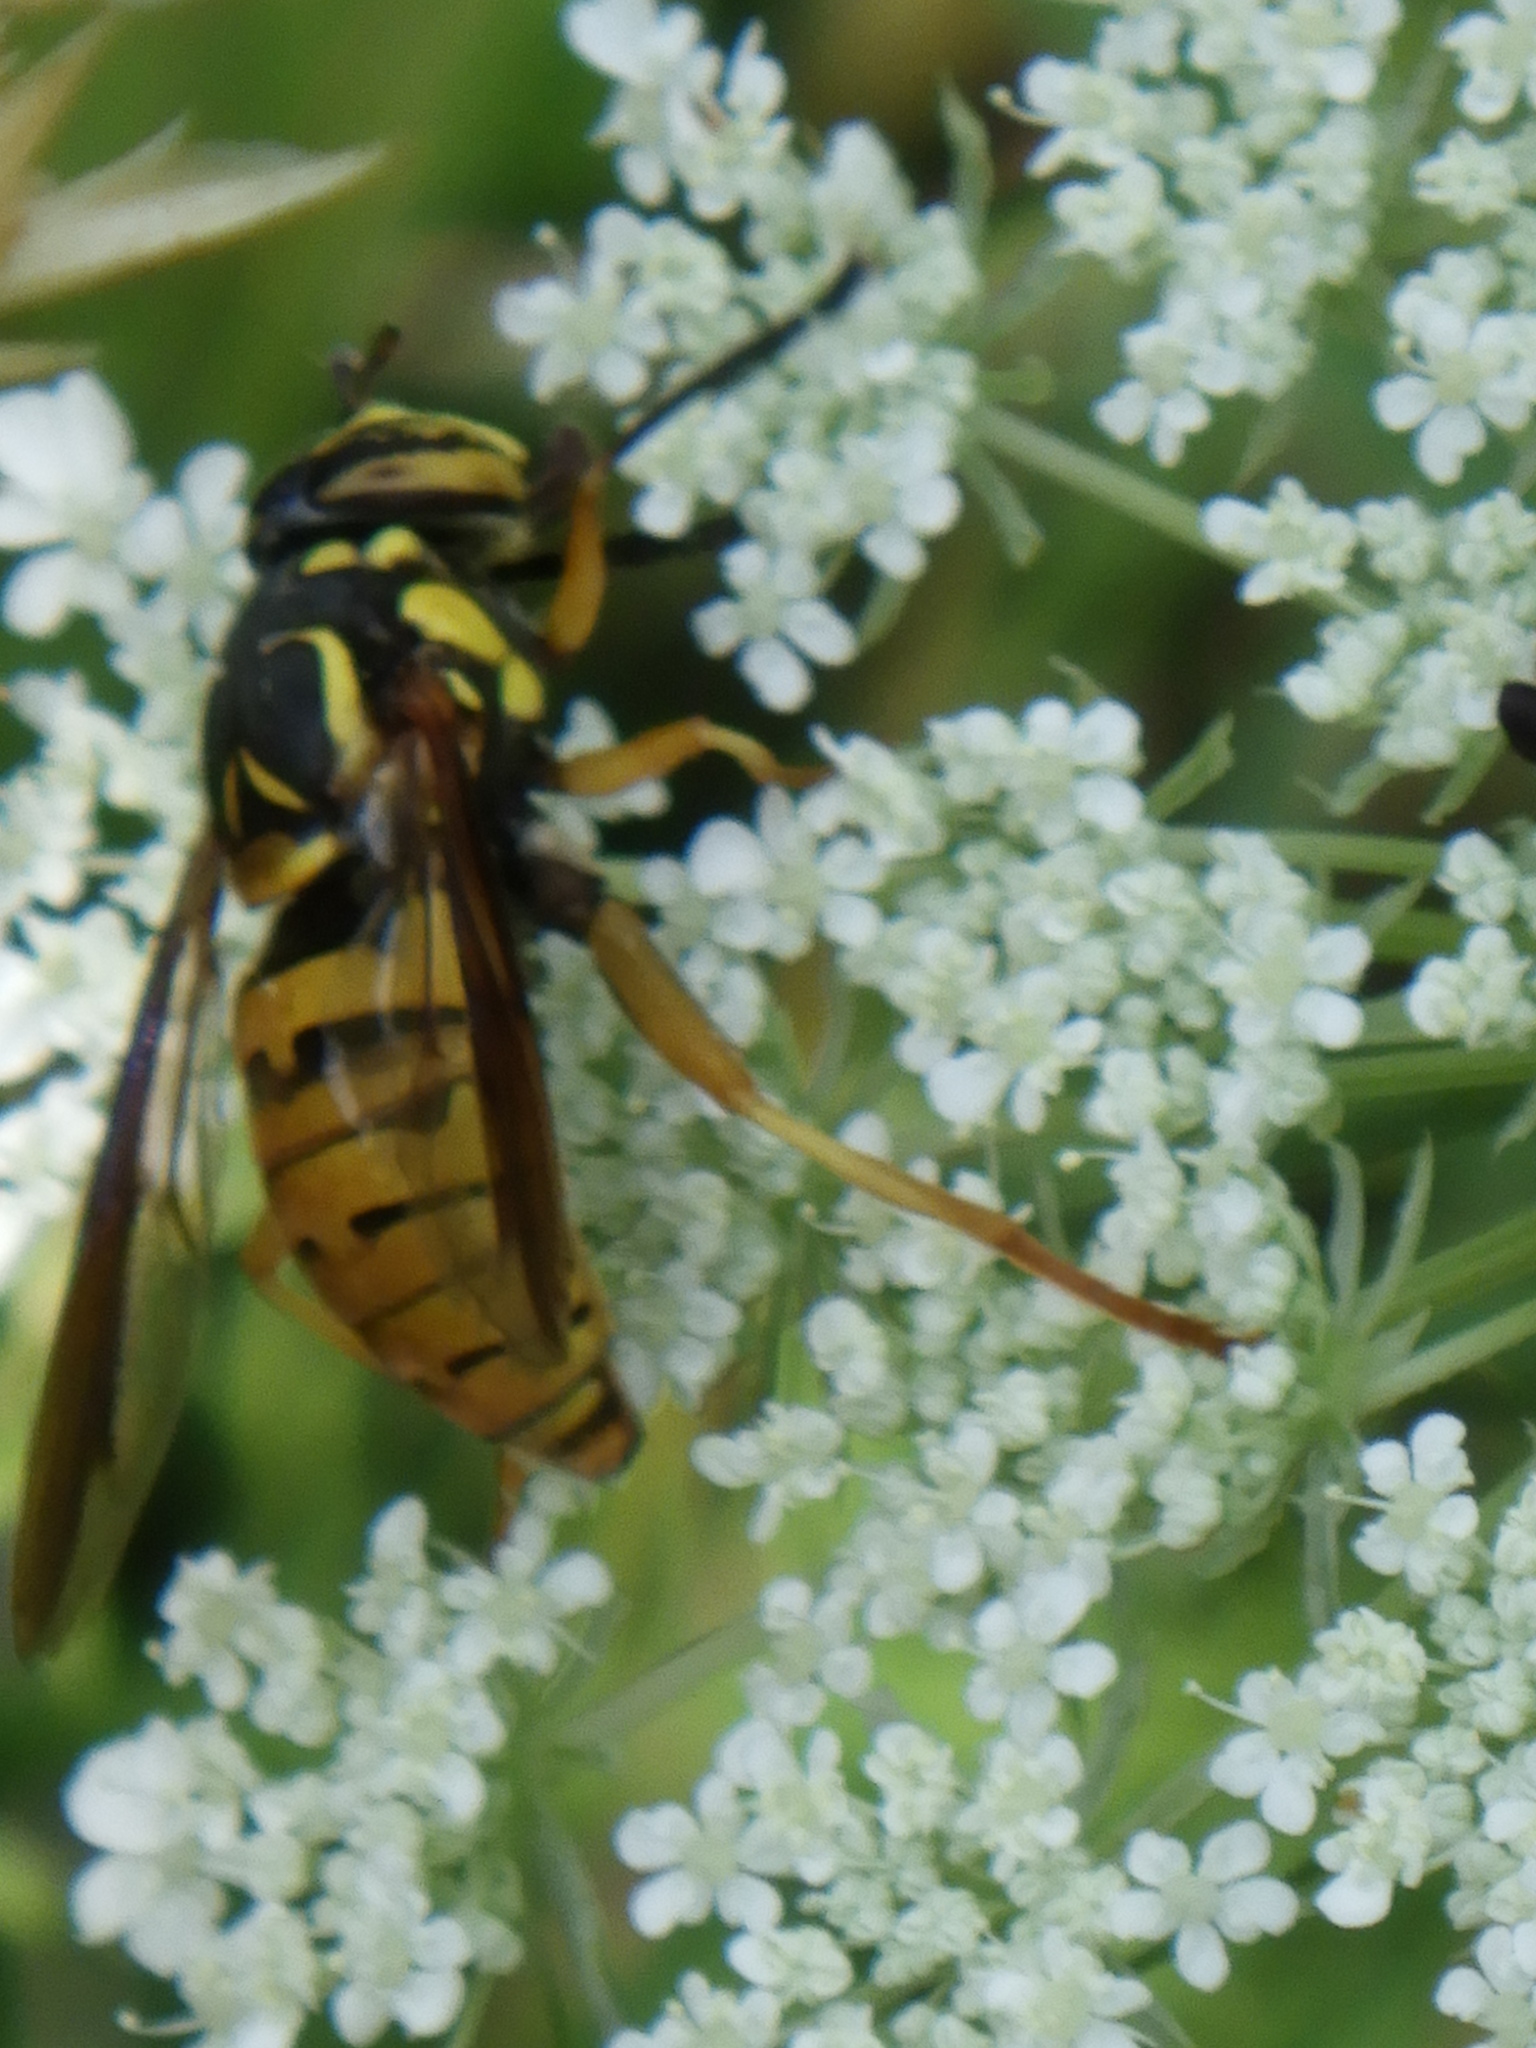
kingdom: Animalia
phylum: Arthropoda
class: Insecta
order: Diptera
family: Syrphidae
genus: Spilomyia
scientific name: Spilomyia alcimus
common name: Broad-banded hornet fly
